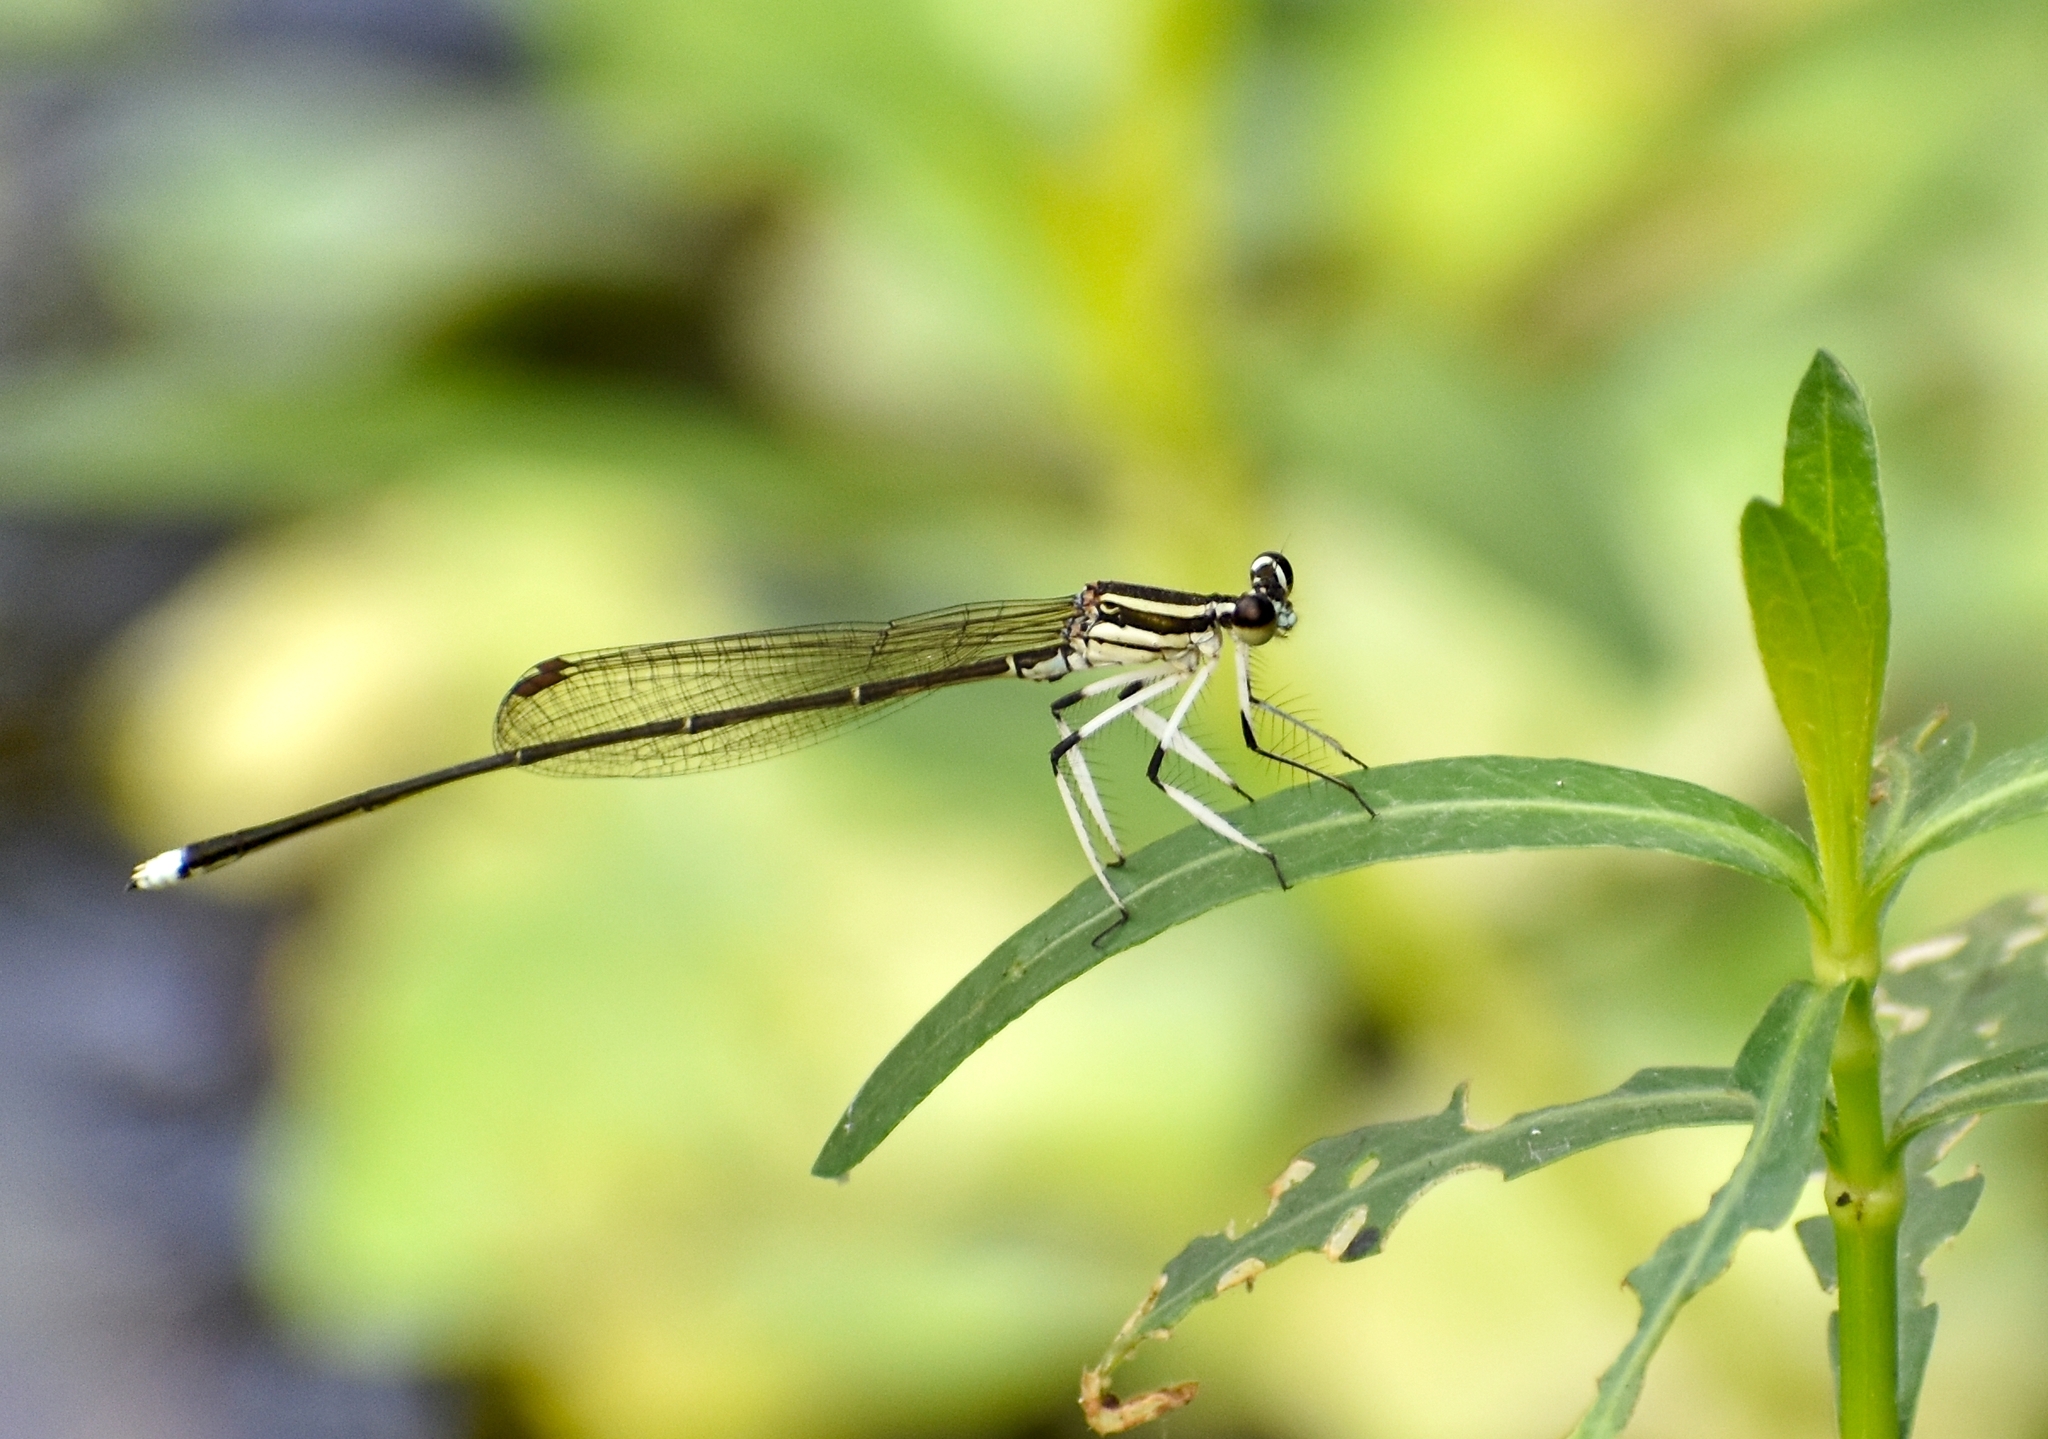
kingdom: Animalia
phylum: Arthropoda
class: Insecta
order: Odonata
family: Platycnemididae
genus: Pseudocopera
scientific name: Pseudocopera ciliata
